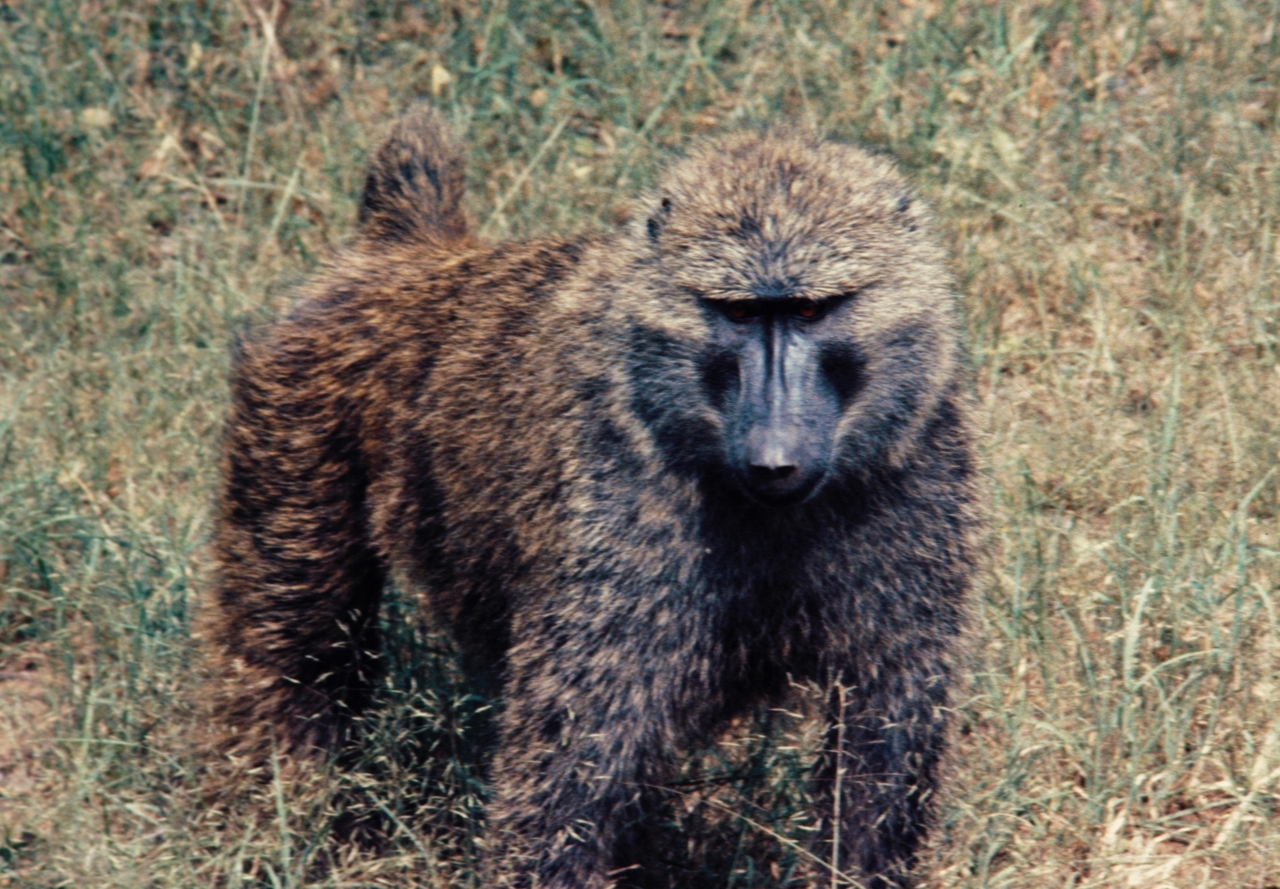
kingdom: Animalia
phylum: Chordata
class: Mammalia
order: Primates
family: Cercopithecidae
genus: Papio
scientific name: Papio anubis
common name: Olive baboon
